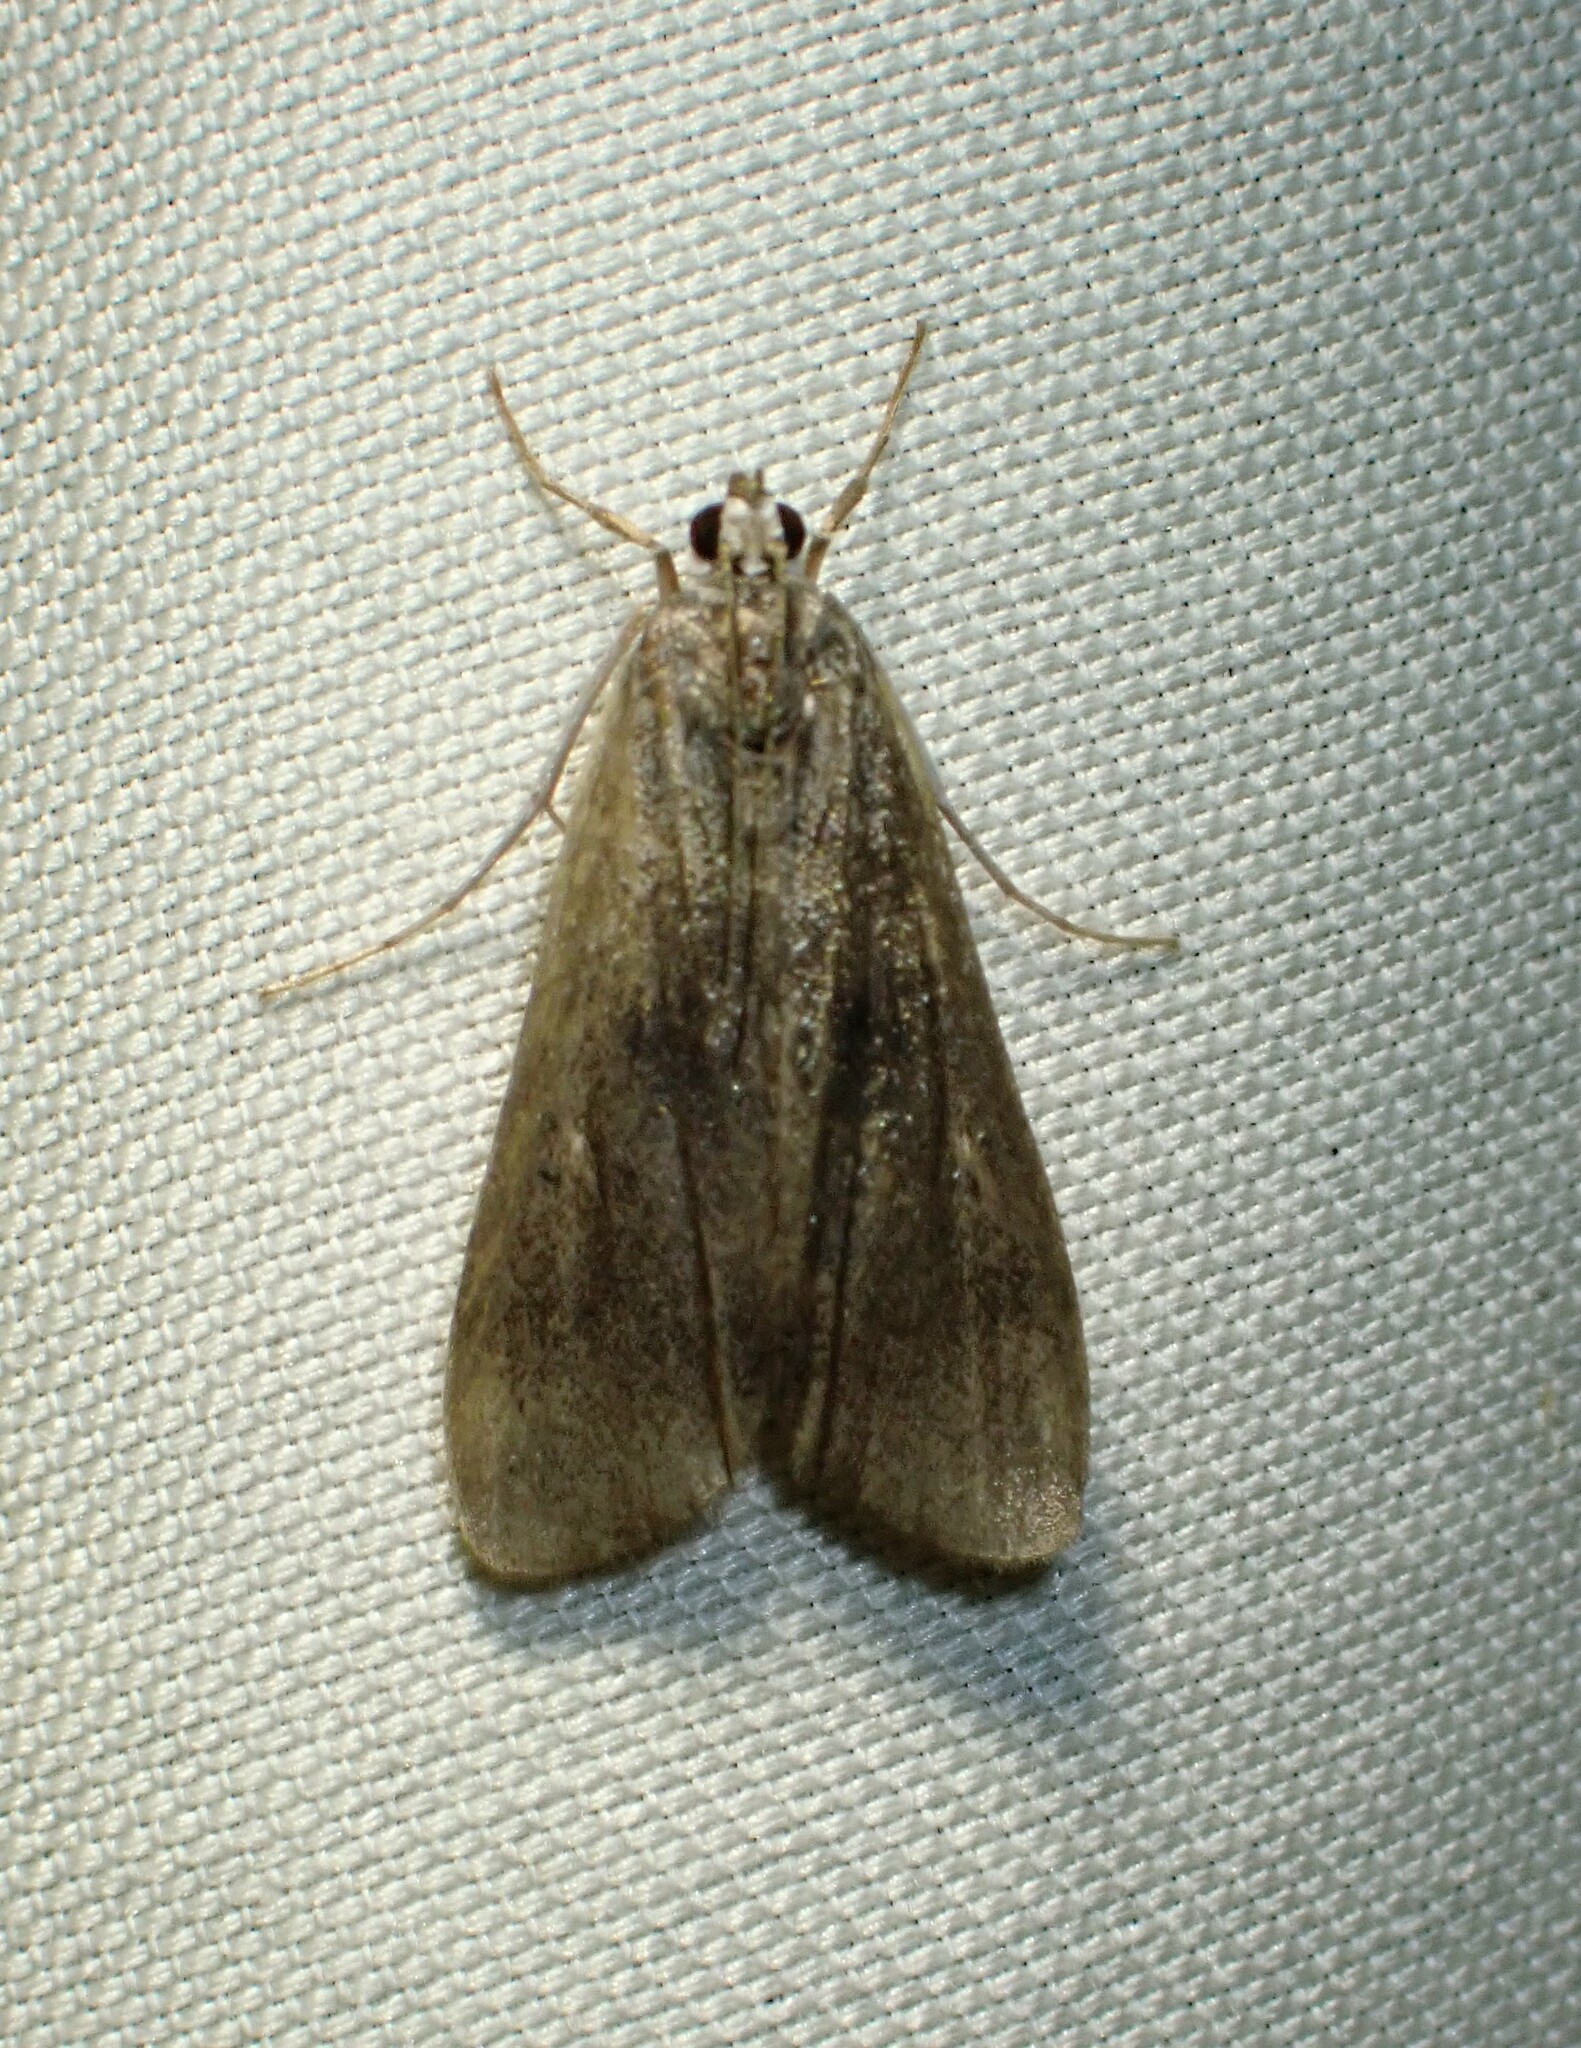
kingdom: Animalia
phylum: Arthropoda
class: Insecta
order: Lepidoptera
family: Crambidae
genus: Parapoynx
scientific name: Parapoynx maculalis
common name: Polymorphic pondweed moth
